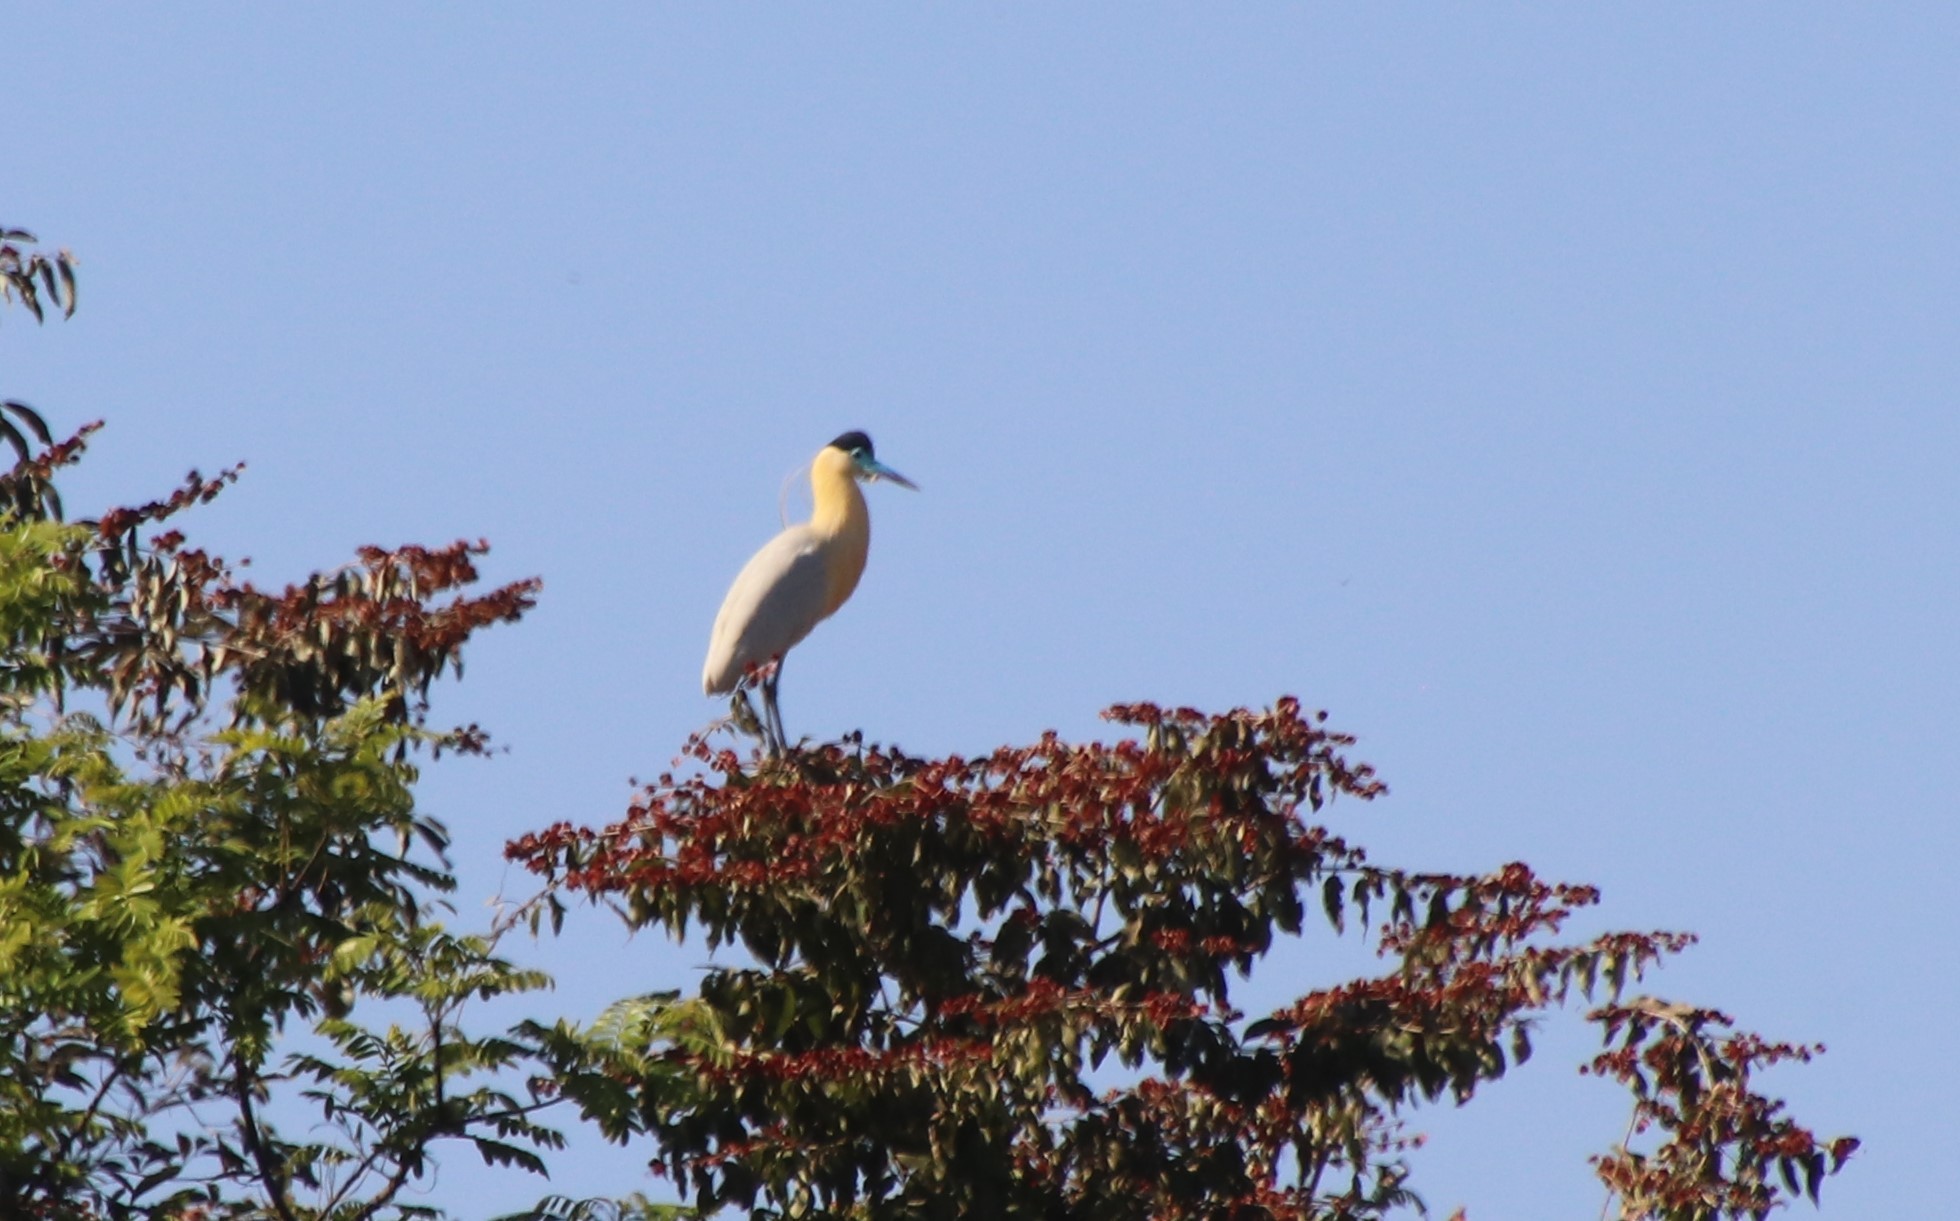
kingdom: Animalia
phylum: Chordata
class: Aves
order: Pelecaniformes
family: Ardeidae
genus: Pilherodius
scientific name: Pilherodius pileatus
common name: Capped heron
